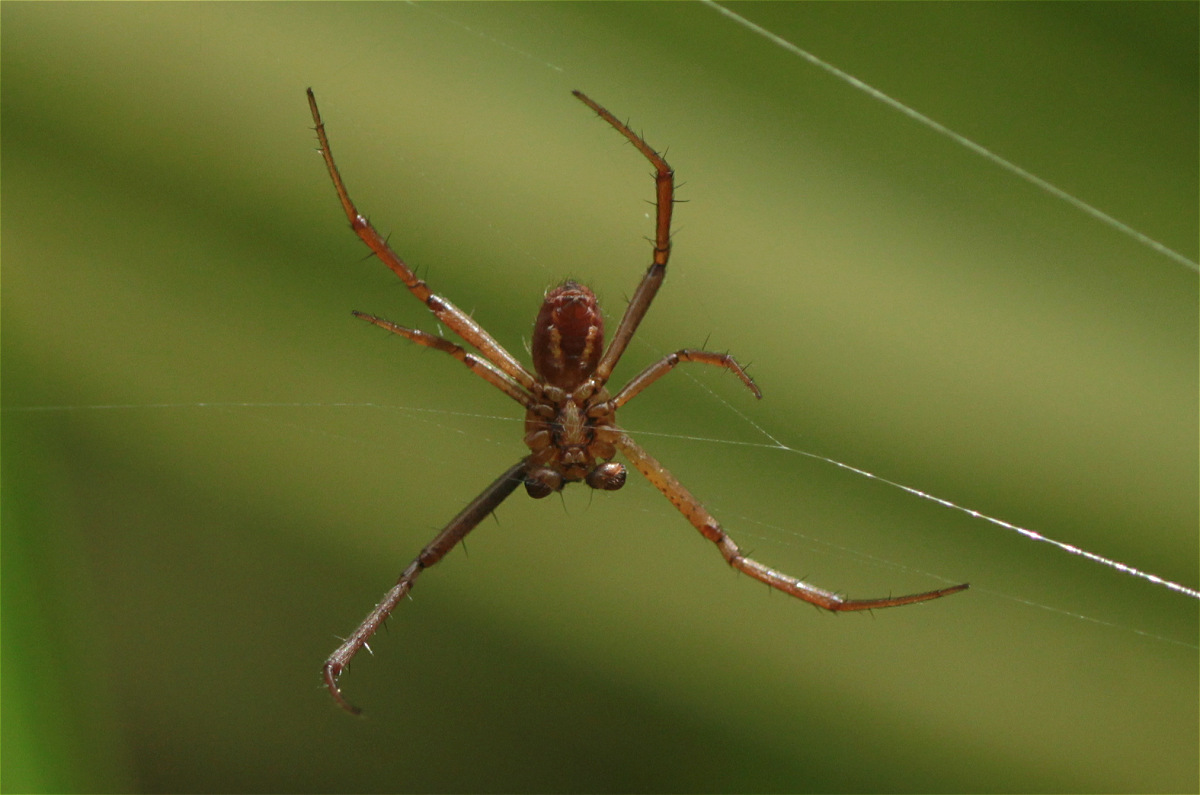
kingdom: Animalia
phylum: Arthropoda
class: Arachnida
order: Araneae
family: Araneidae
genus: Argiope
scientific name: Argiope trifasciata
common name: Banded garden spider
